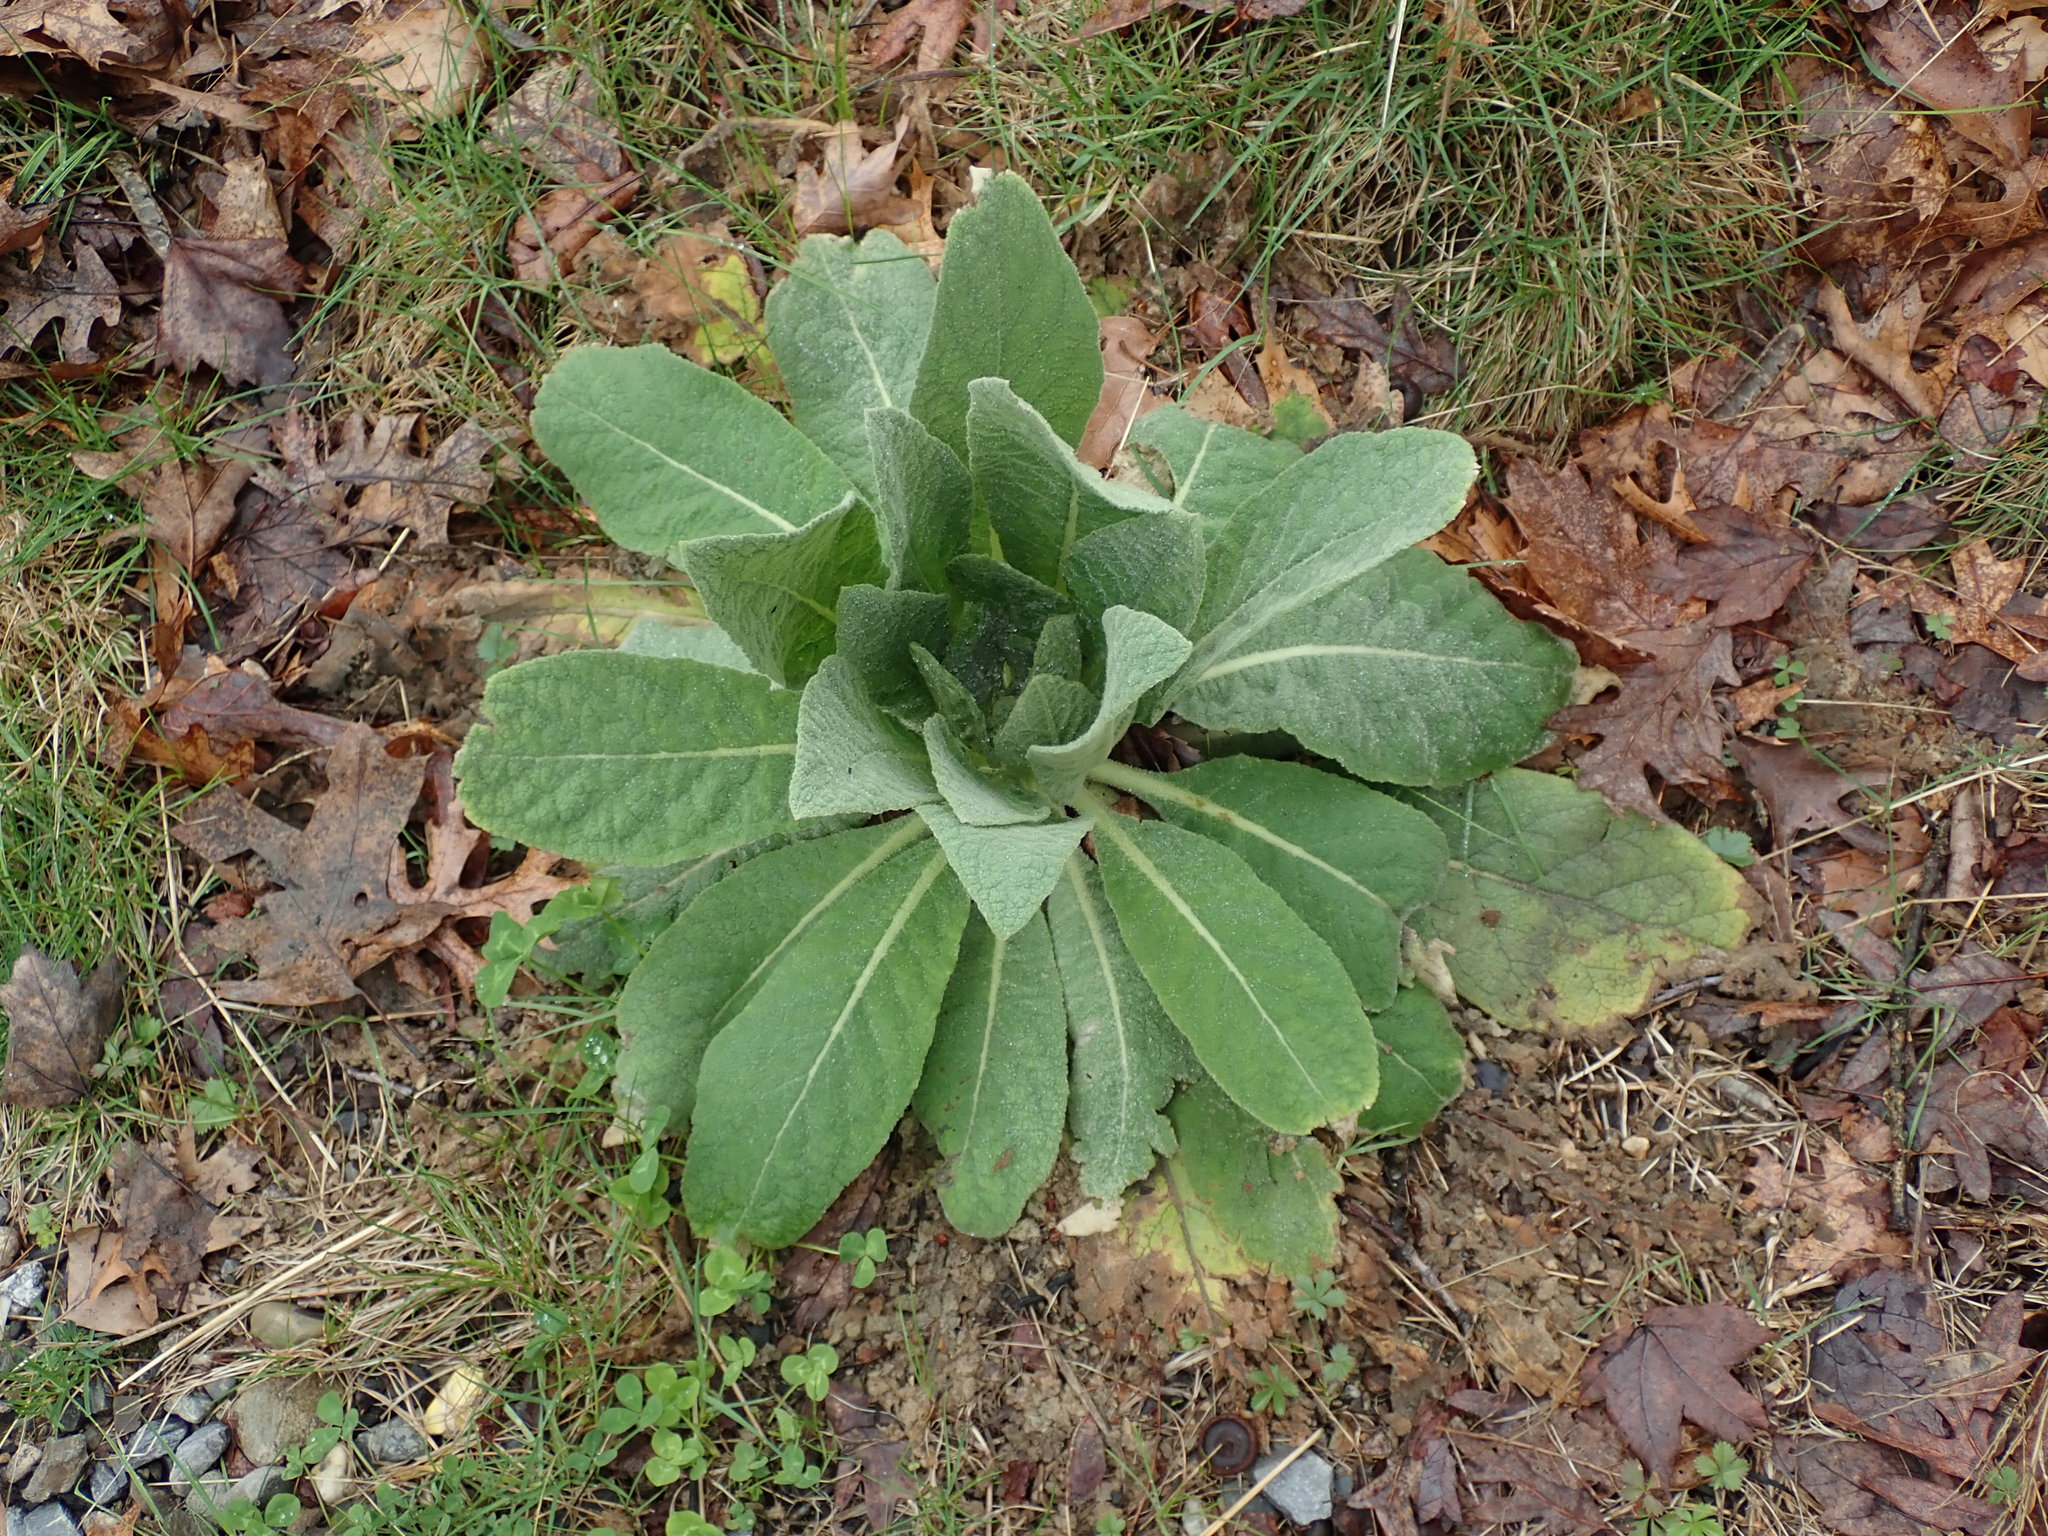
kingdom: Plantae
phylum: Tracheophyta
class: Magnoliopsida
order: Lamiales
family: Scrophulariaceae
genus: Verbascum
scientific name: Verbascum thapsus
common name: Common mullein
